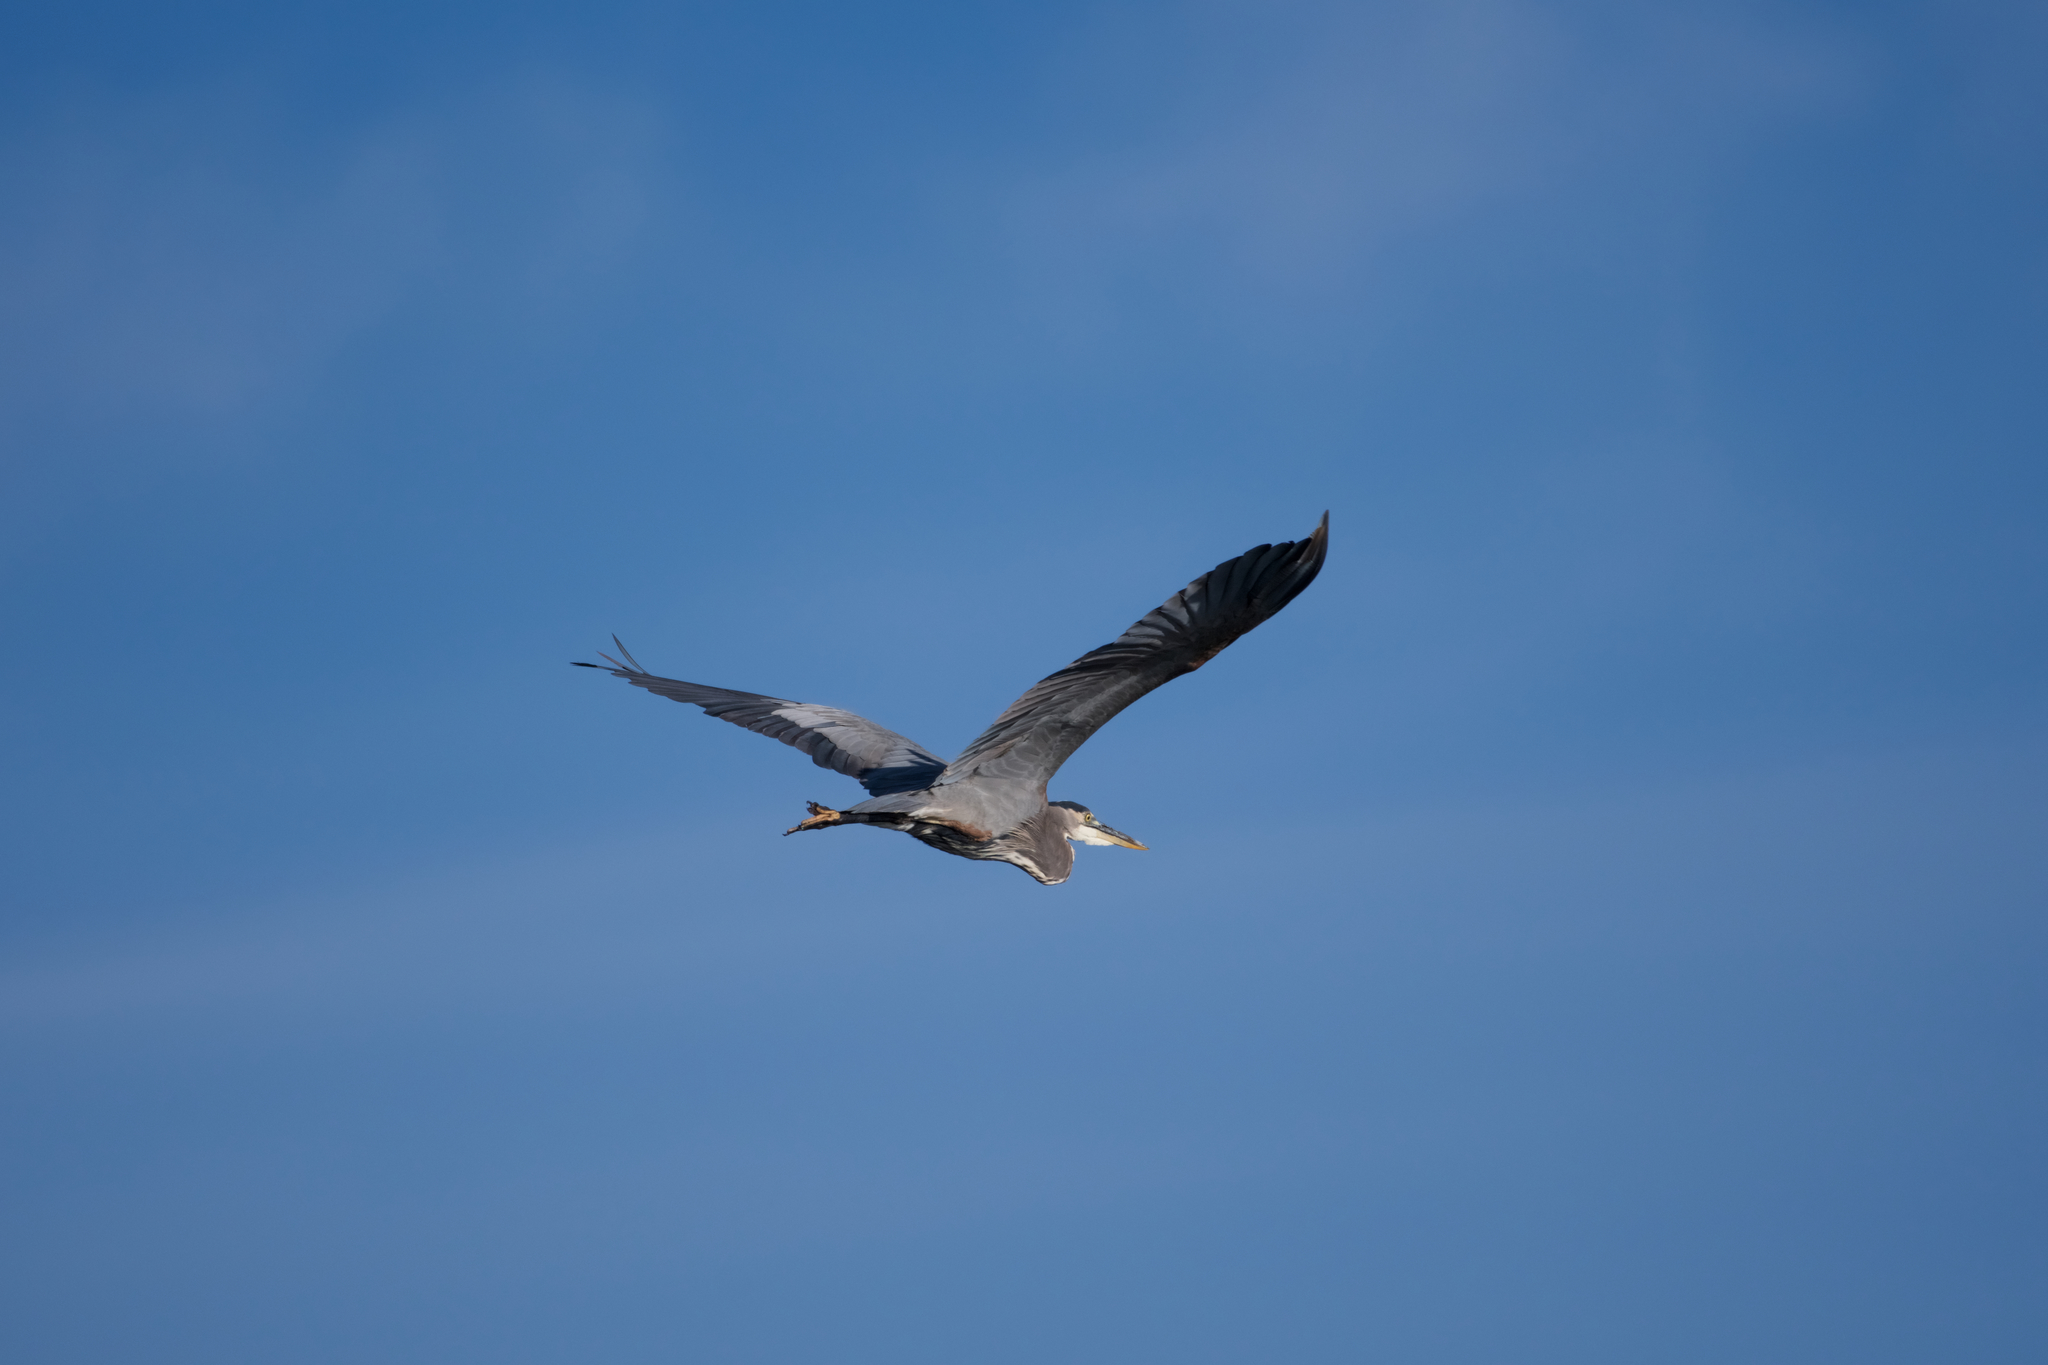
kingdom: Animalia
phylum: Chordata
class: Aves
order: Pelecaniformes
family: Ardeidae
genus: Ardea
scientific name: Ardea herodias
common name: Great blue heron
